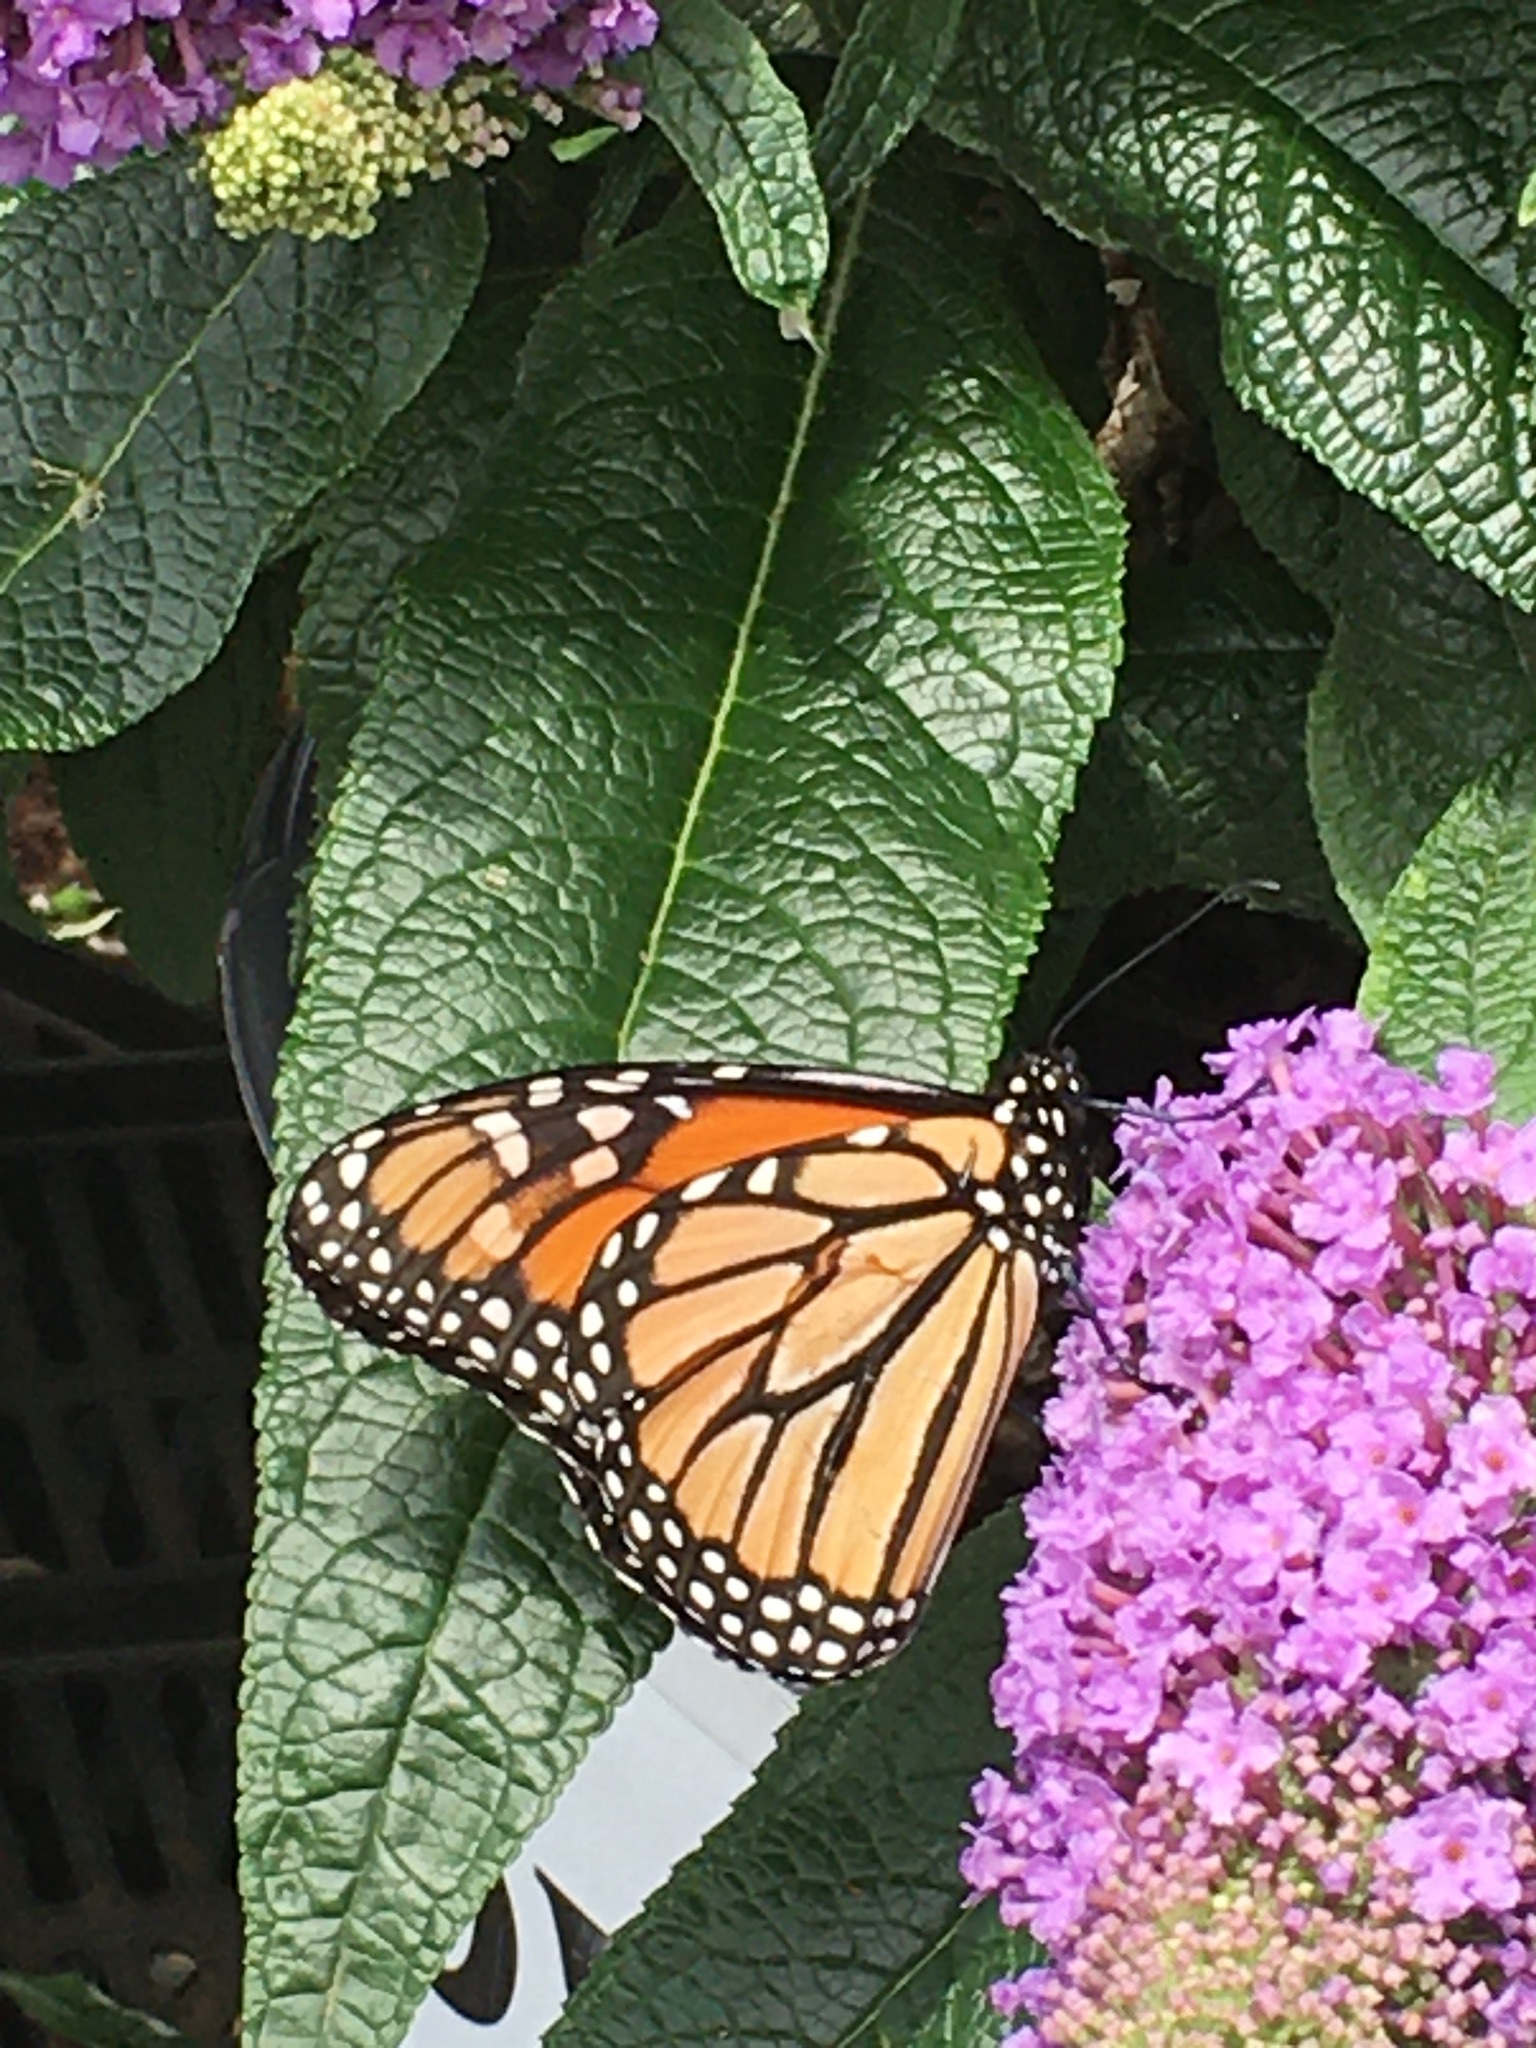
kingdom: Animalia
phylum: Arthropoda
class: Insecta
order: Lepidoptera
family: Nymphalidae
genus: Danaus
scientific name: Danaus plexippus
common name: Monarch
